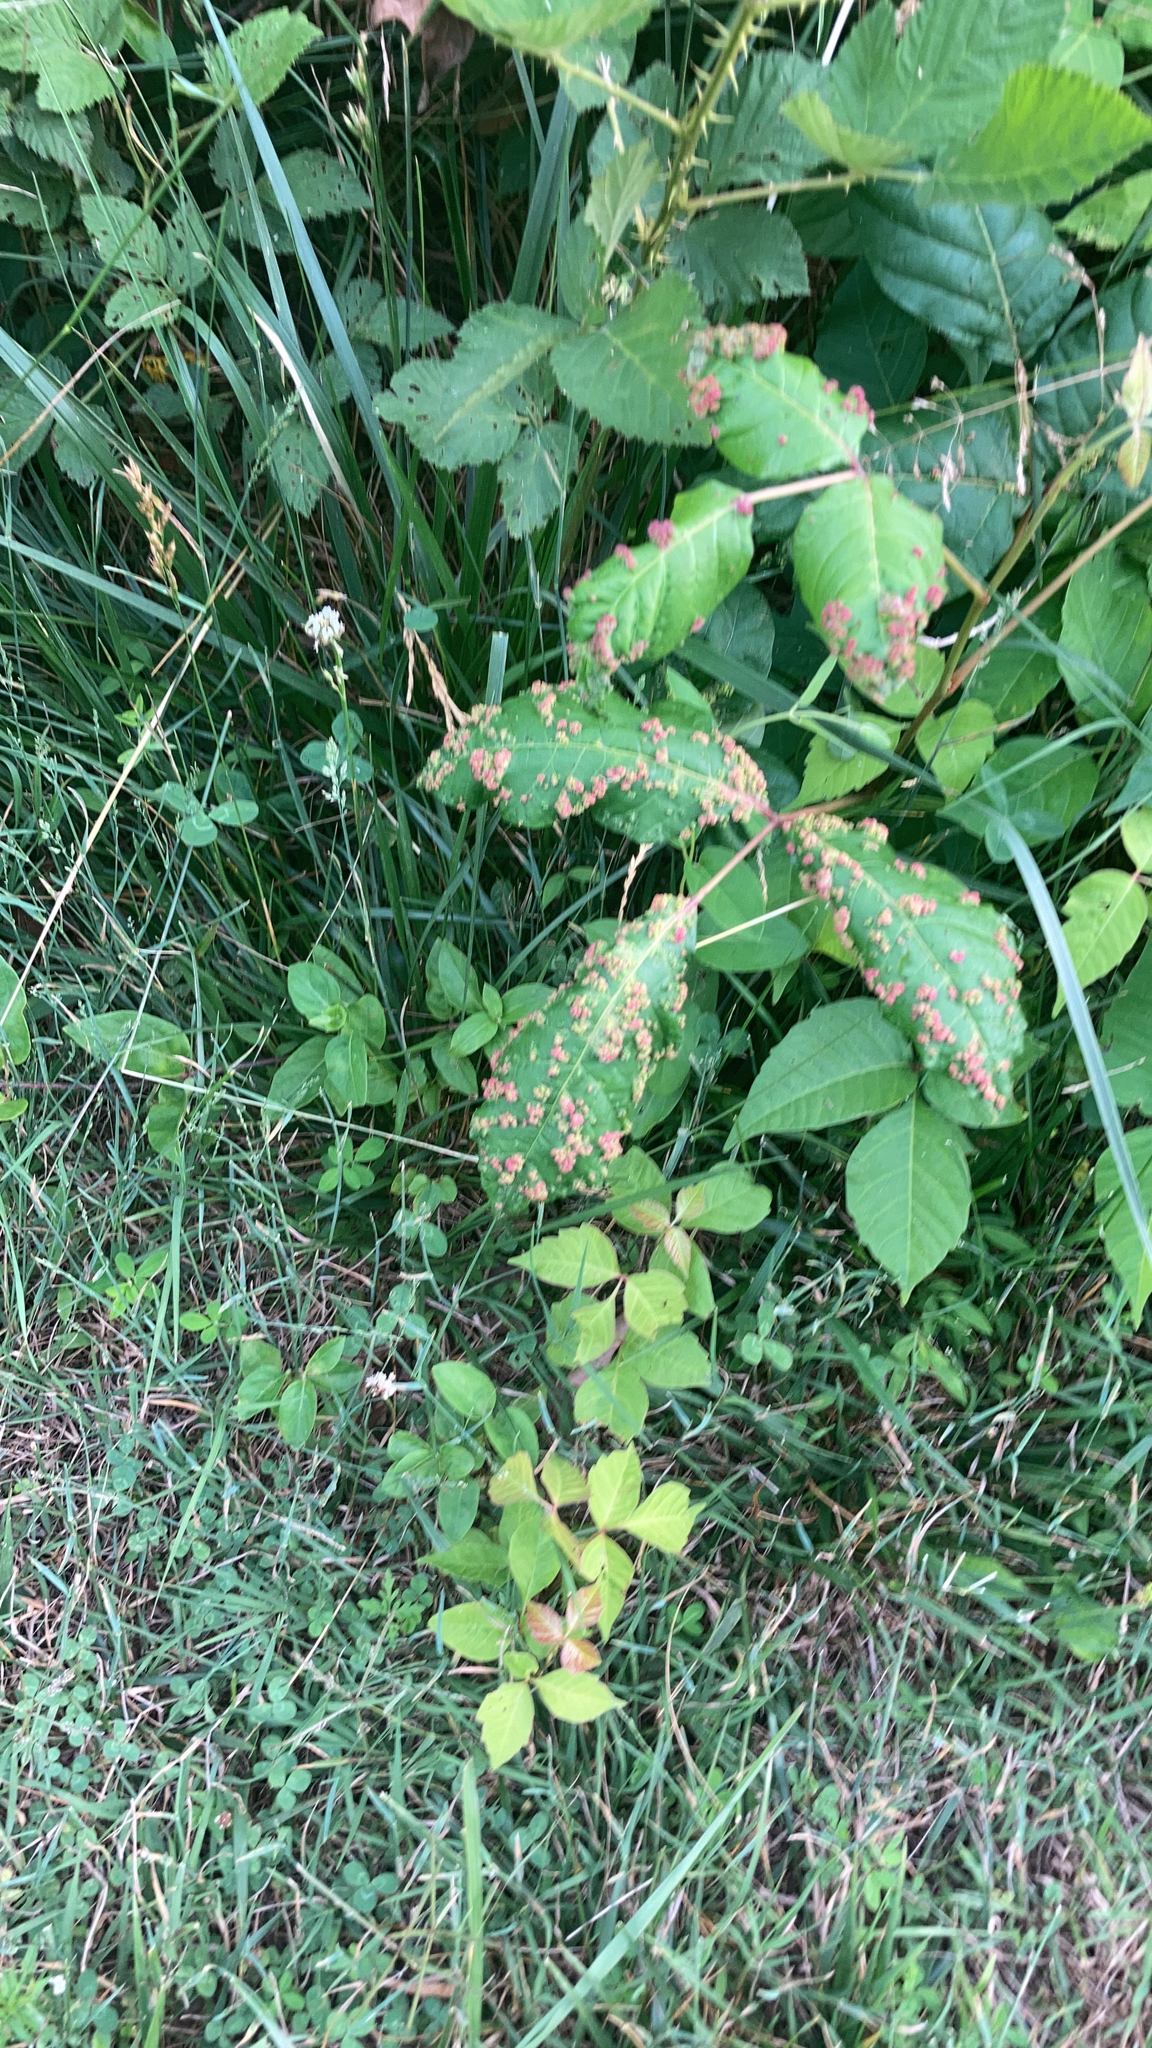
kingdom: Animalia
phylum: Arthropoda
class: Arachnida
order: Trombidiformes
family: Eriophyidae
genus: Aculops
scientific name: Aculops
